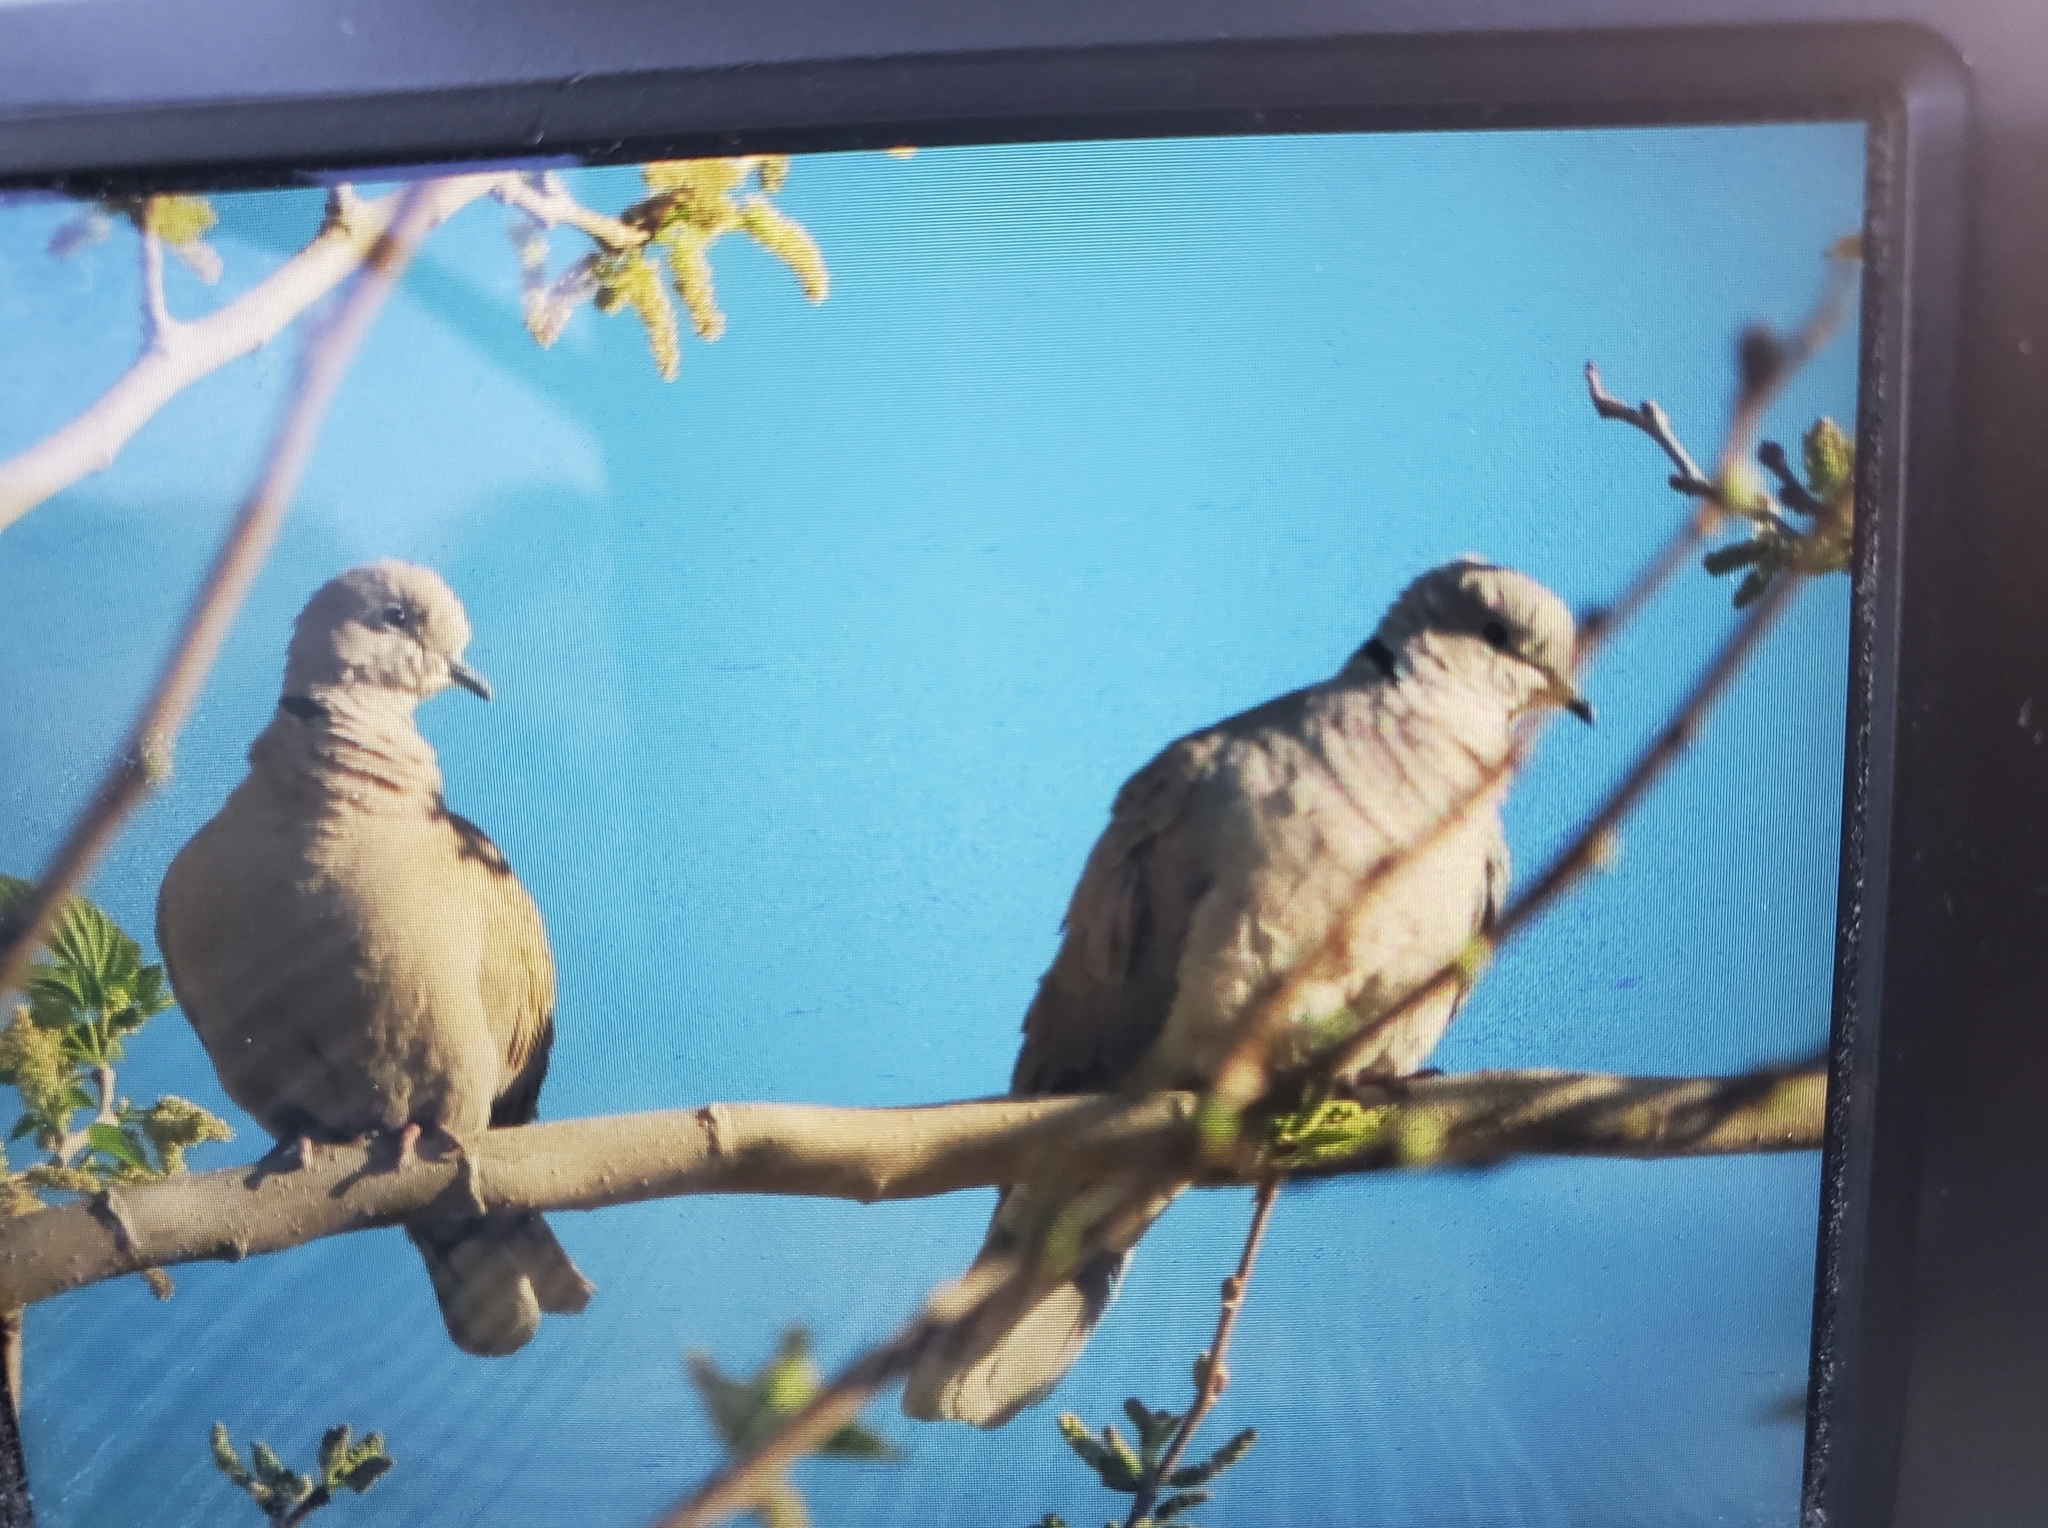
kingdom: Animalia
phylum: Chordata
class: Aves
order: Columbiformes
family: Columbidae
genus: Streptopelia
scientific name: Streptopelia decaocto
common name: Eurasian collared dove
